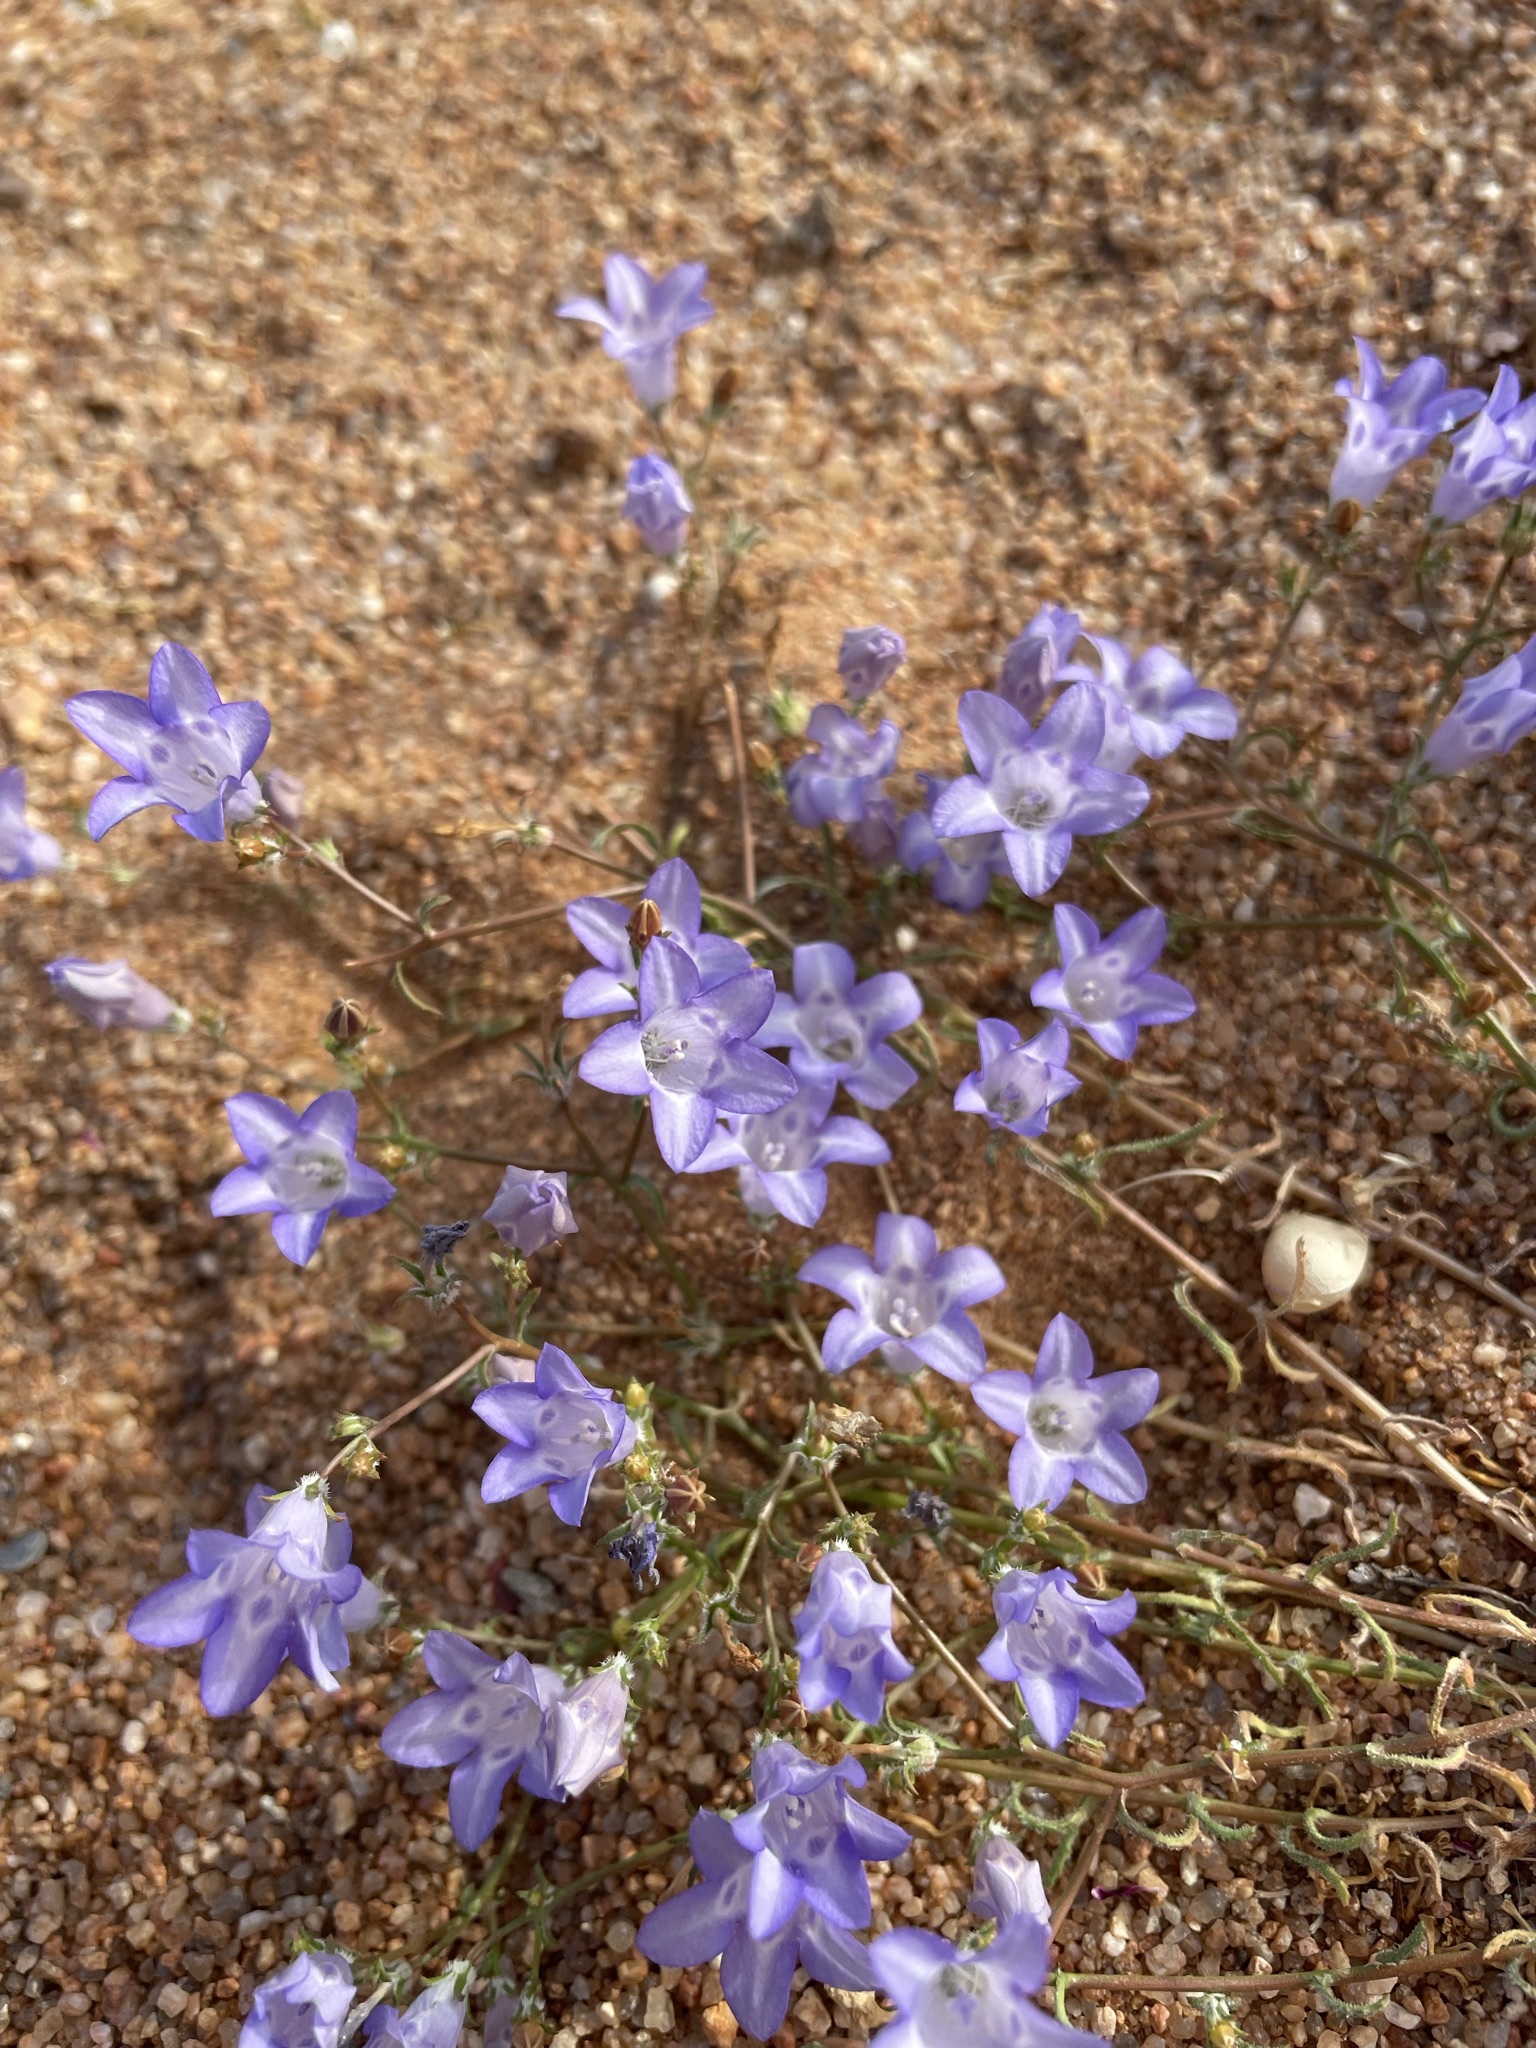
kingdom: Plantae
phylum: Tracheophyta
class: Magnoliopsida
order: Asterales
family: Campanulaceae
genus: Wahlenbergia
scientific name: Wahlenbergia roelliflora
